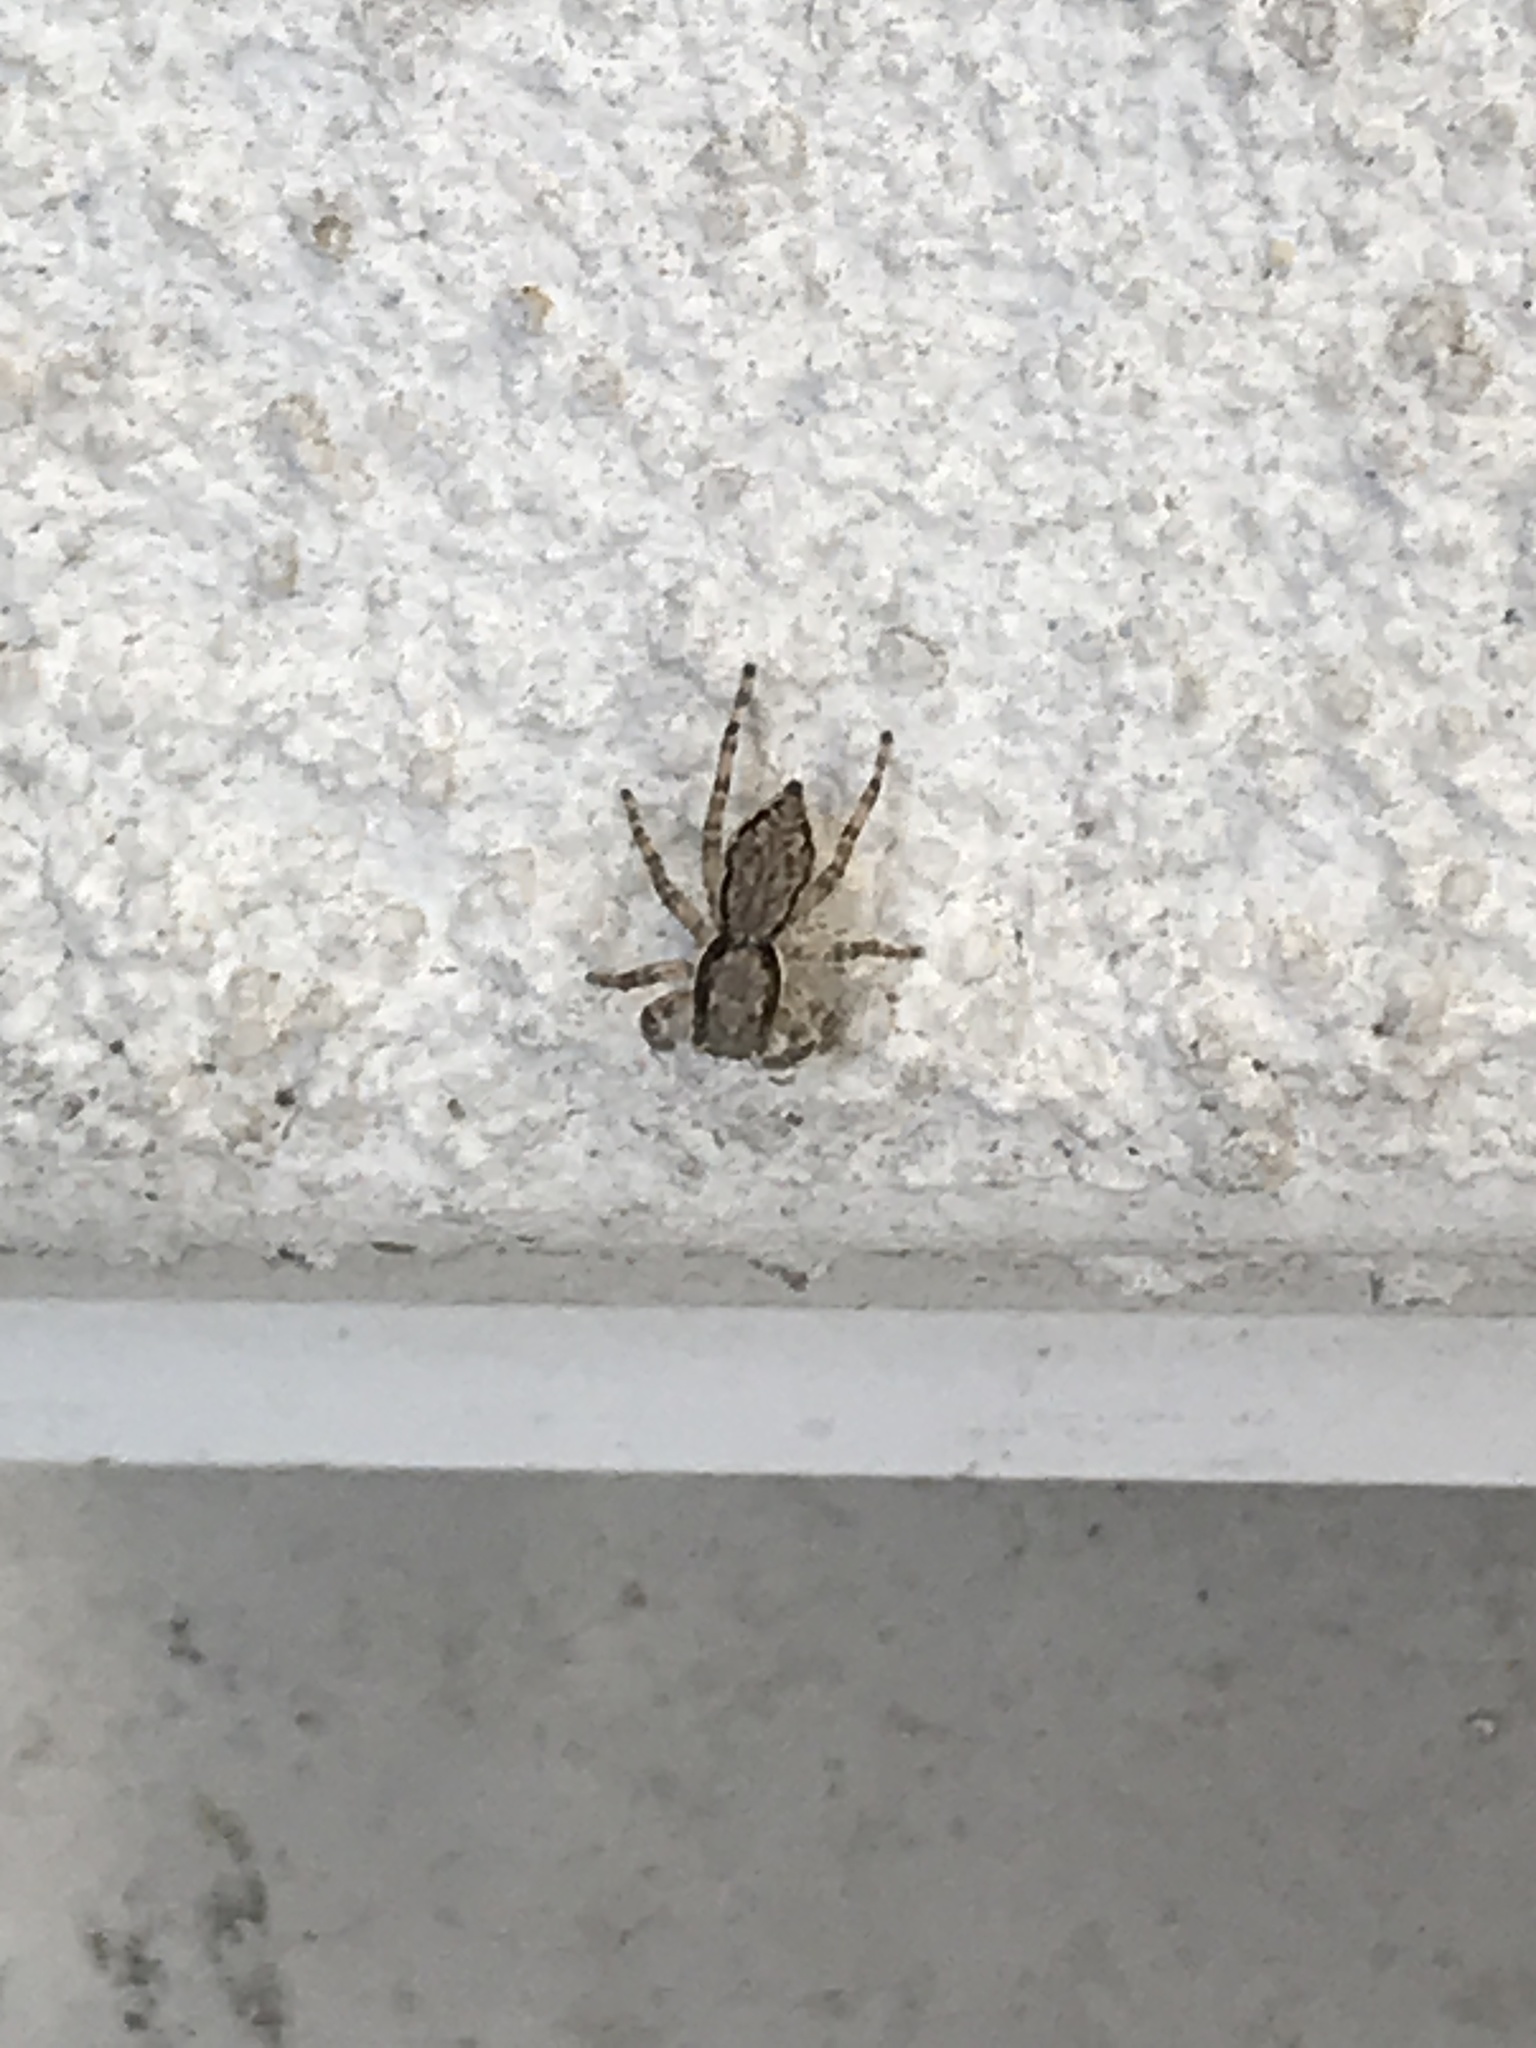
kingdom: Animalia
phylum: Arthropoda
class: Arachnida
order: Araneae
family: Salticidae
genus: Menemerus
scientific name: Menemerus bivittatus
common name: Gray wall jumper
